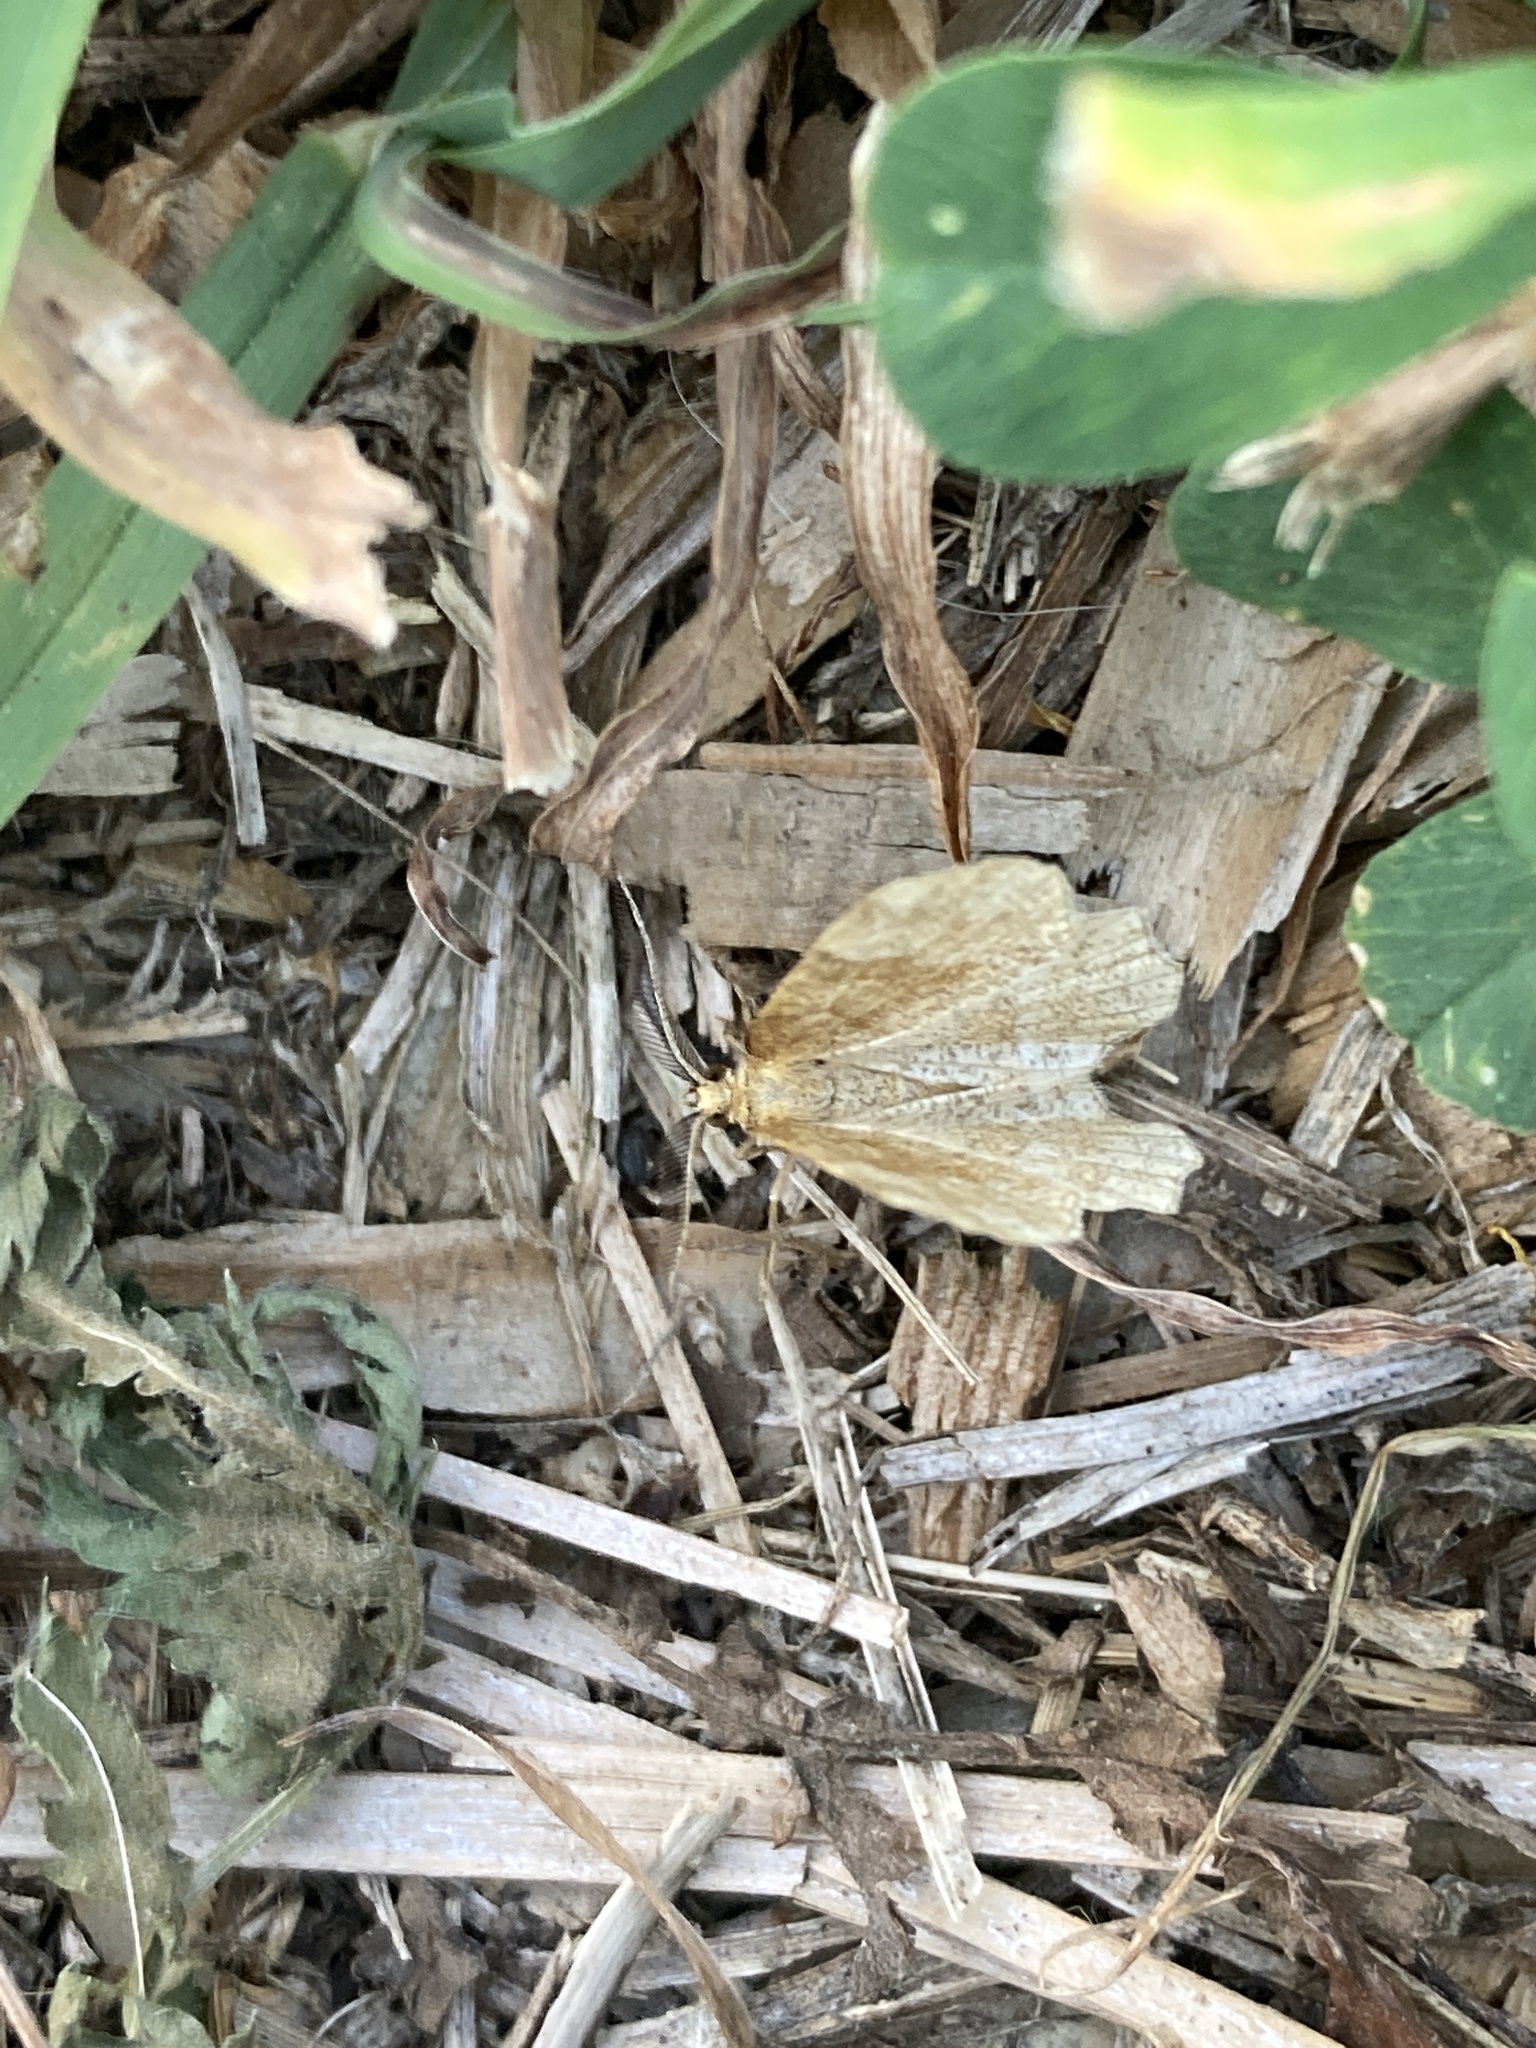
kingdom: Animalia
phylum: Arthropoda
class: Insecta
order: Lepidoptera
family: Geometridae
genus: Cepphis
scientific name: Cepphis advenaria
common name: Little thorn
